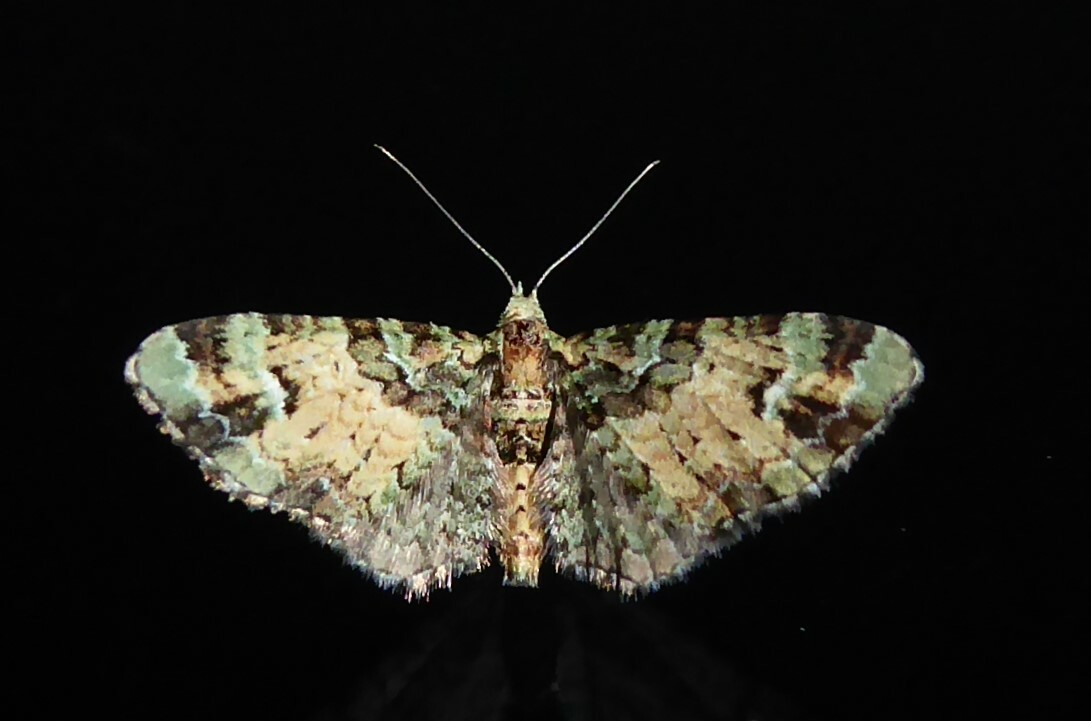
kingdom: Animalia
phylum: Arthropoda
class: Insecta
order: Lepidoptera
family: Geometridae
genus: Pasiphila
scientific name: Pasiphila bilineolata
